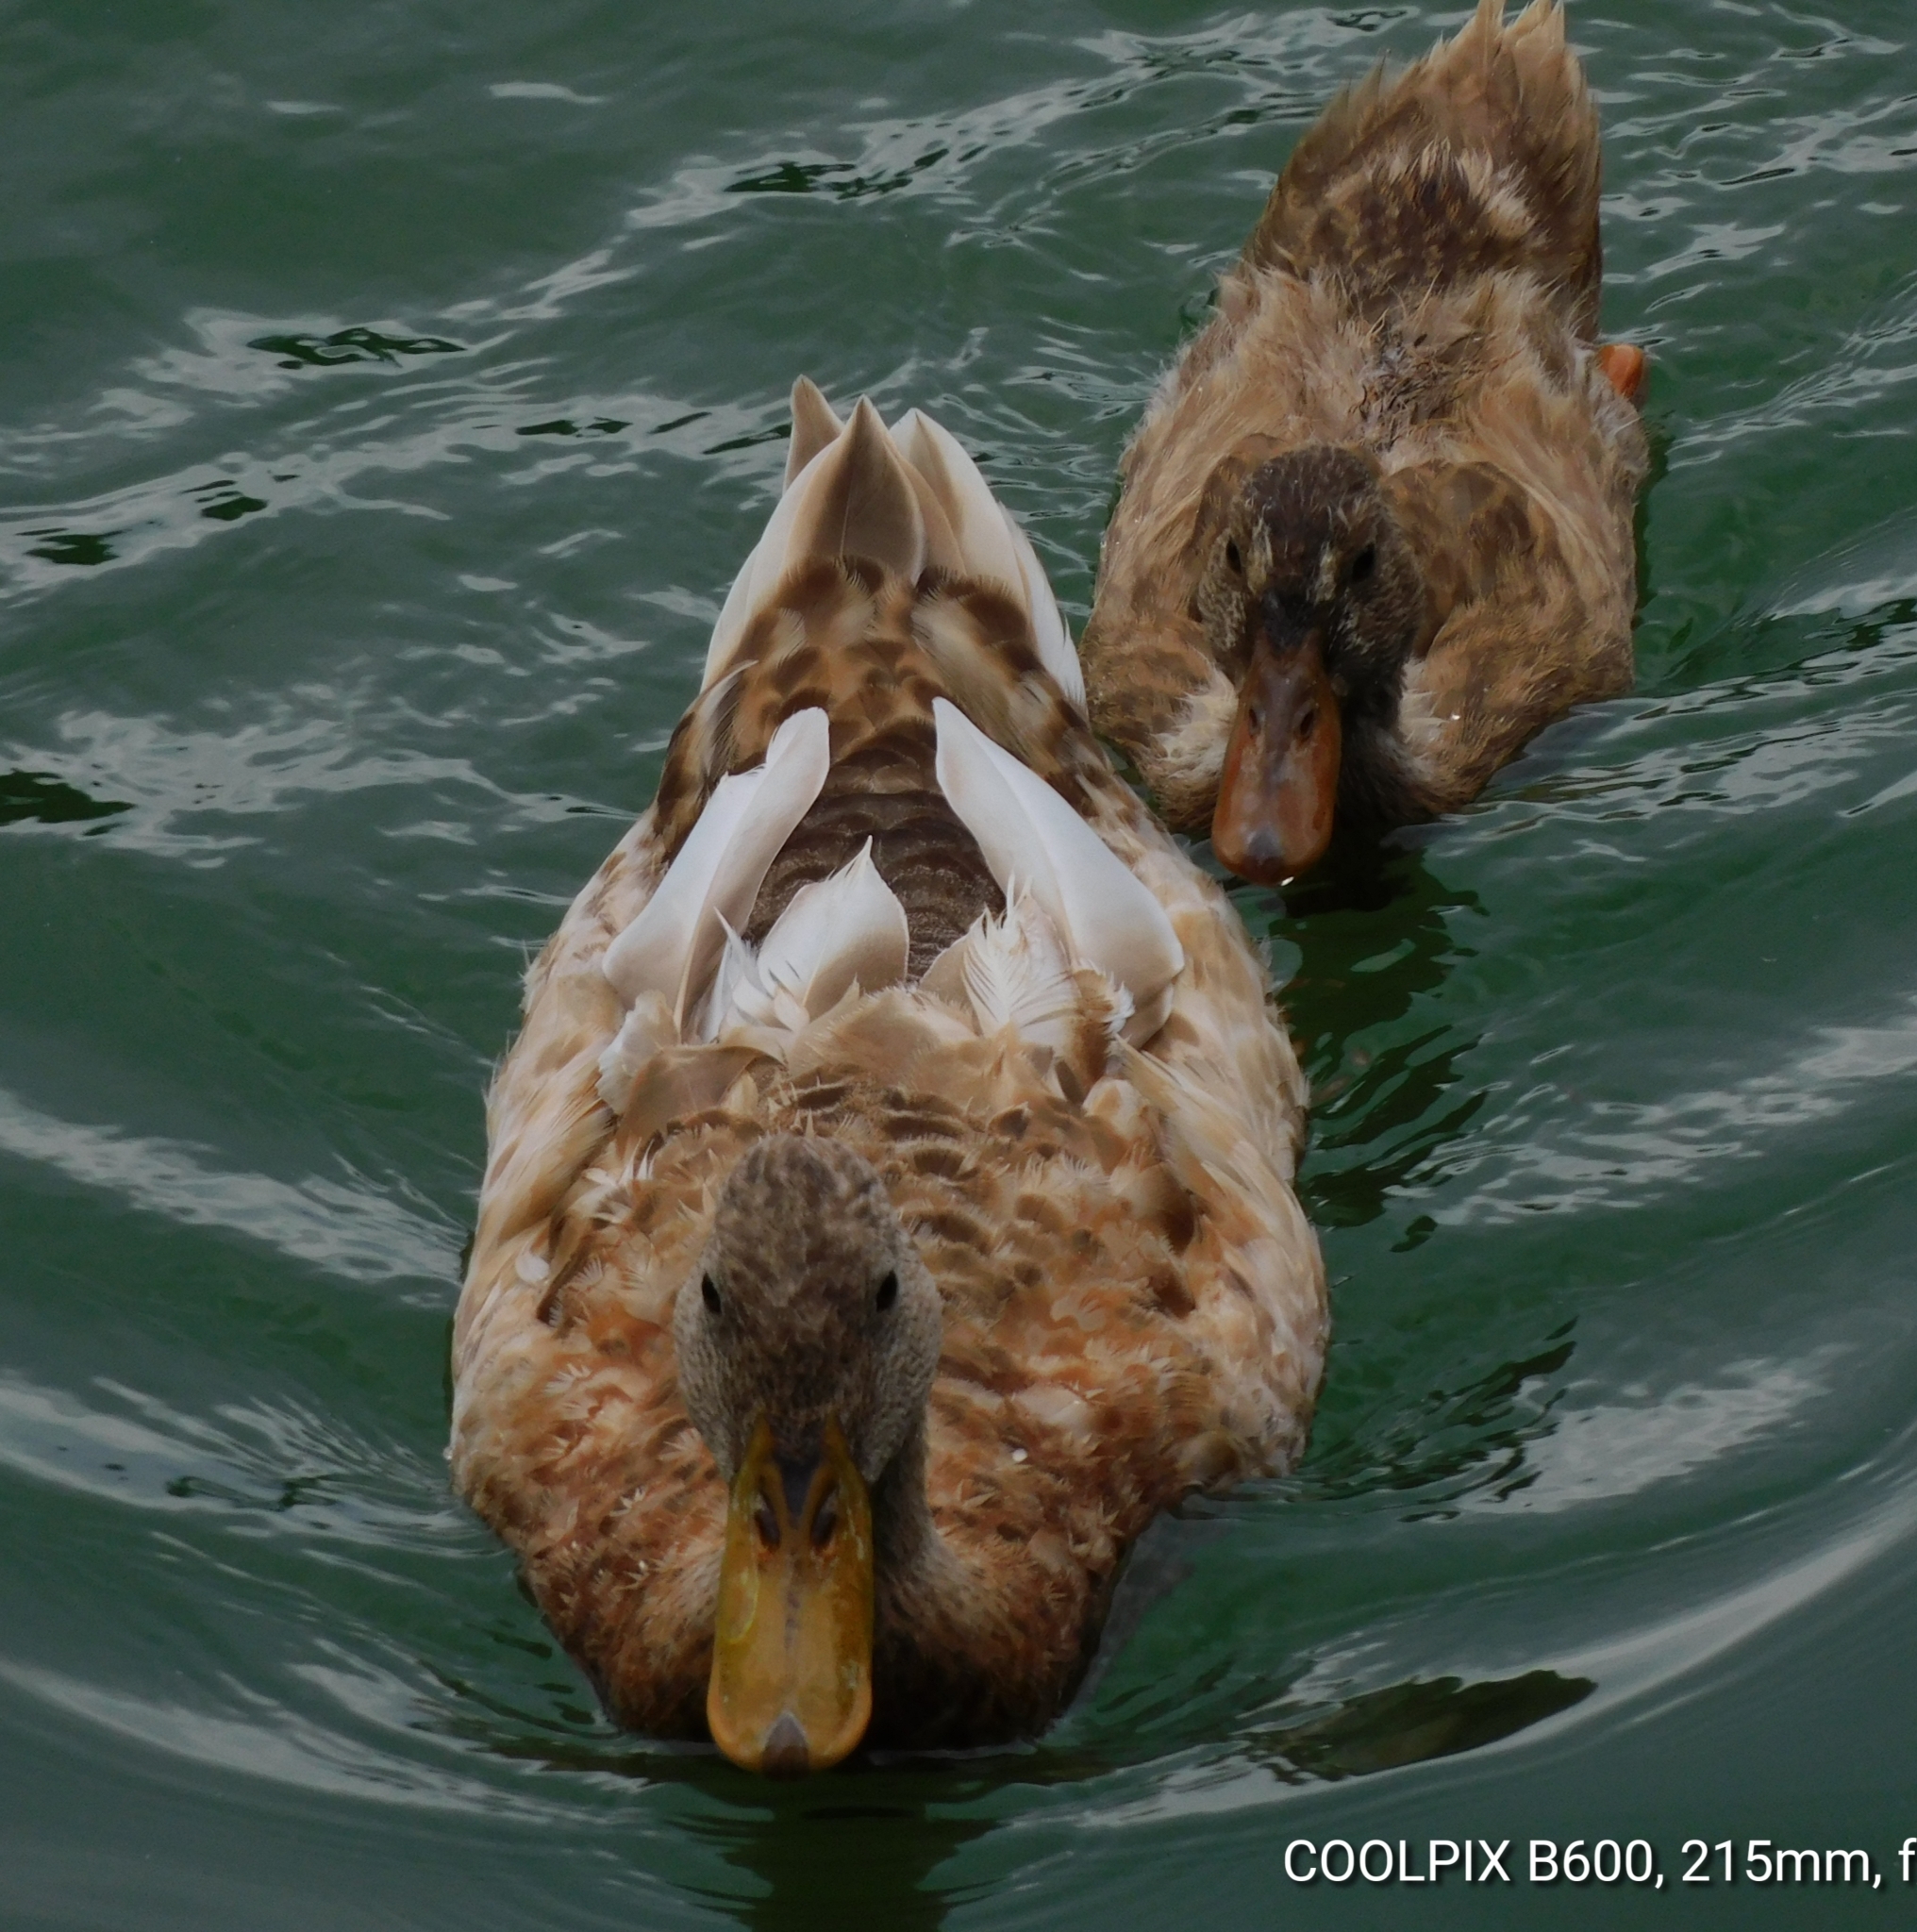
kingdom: Animalia
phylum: Chordata
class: Aves
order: Anseriformes
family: Anatidae
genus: Anas
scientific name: Anas platyrhynchos
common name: Mallard
